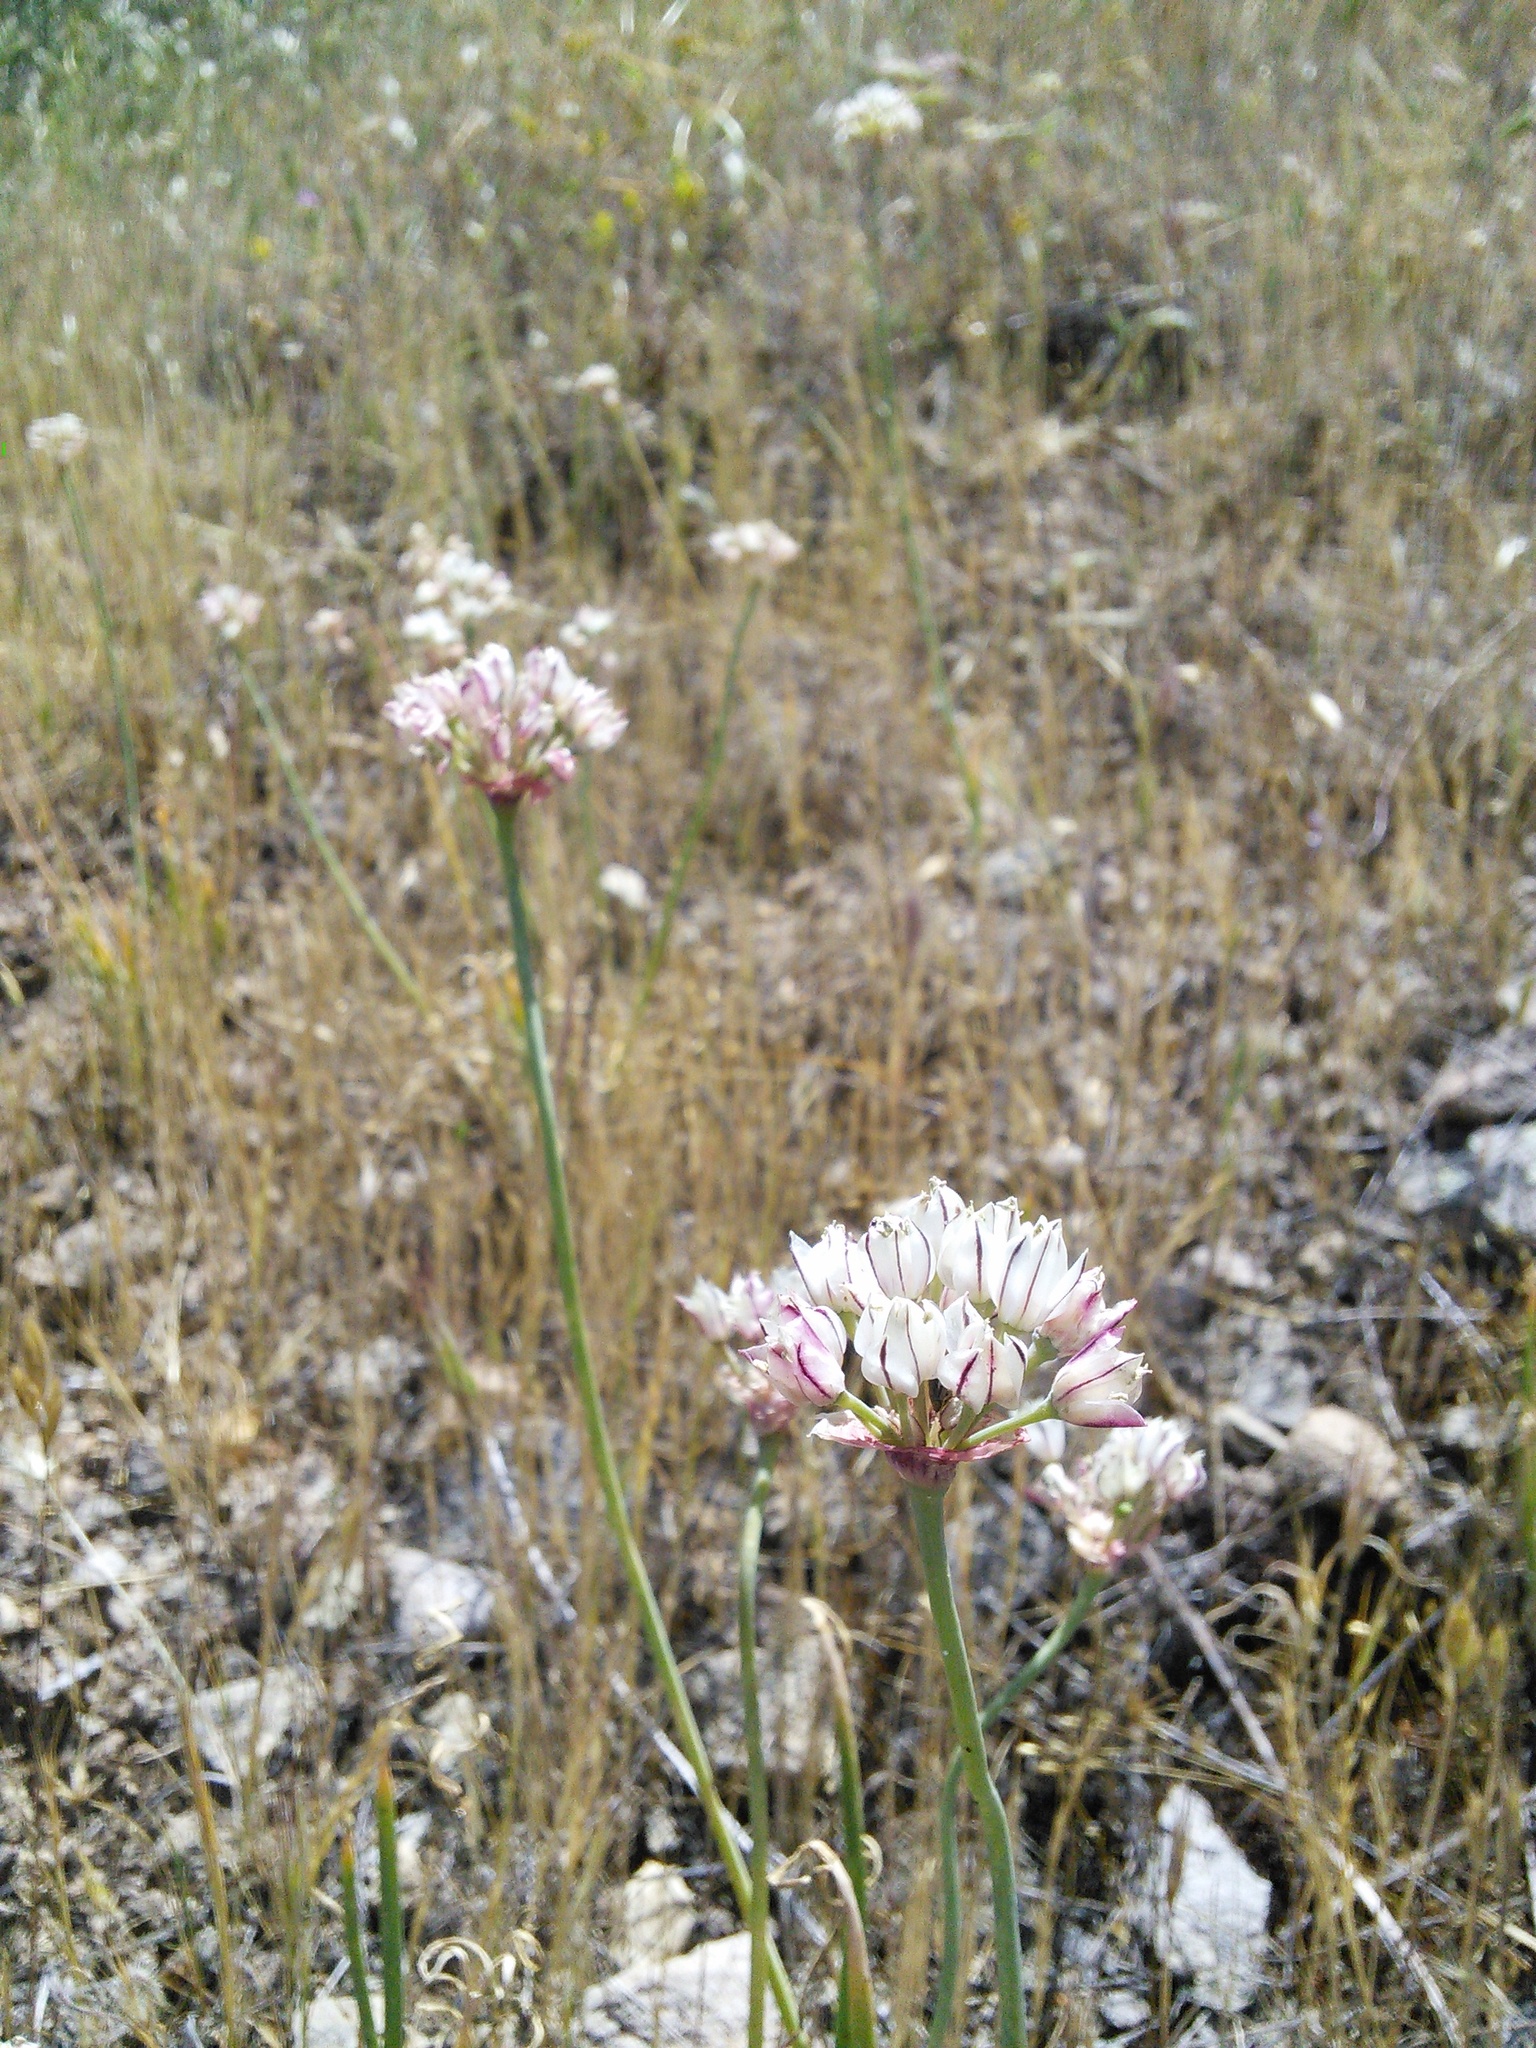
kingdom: Plantae
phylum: Tracheophyta
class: Liliopsida
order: Asparagales
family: Amaryllidaceae
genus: Allium
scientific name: Allium haematochiton
